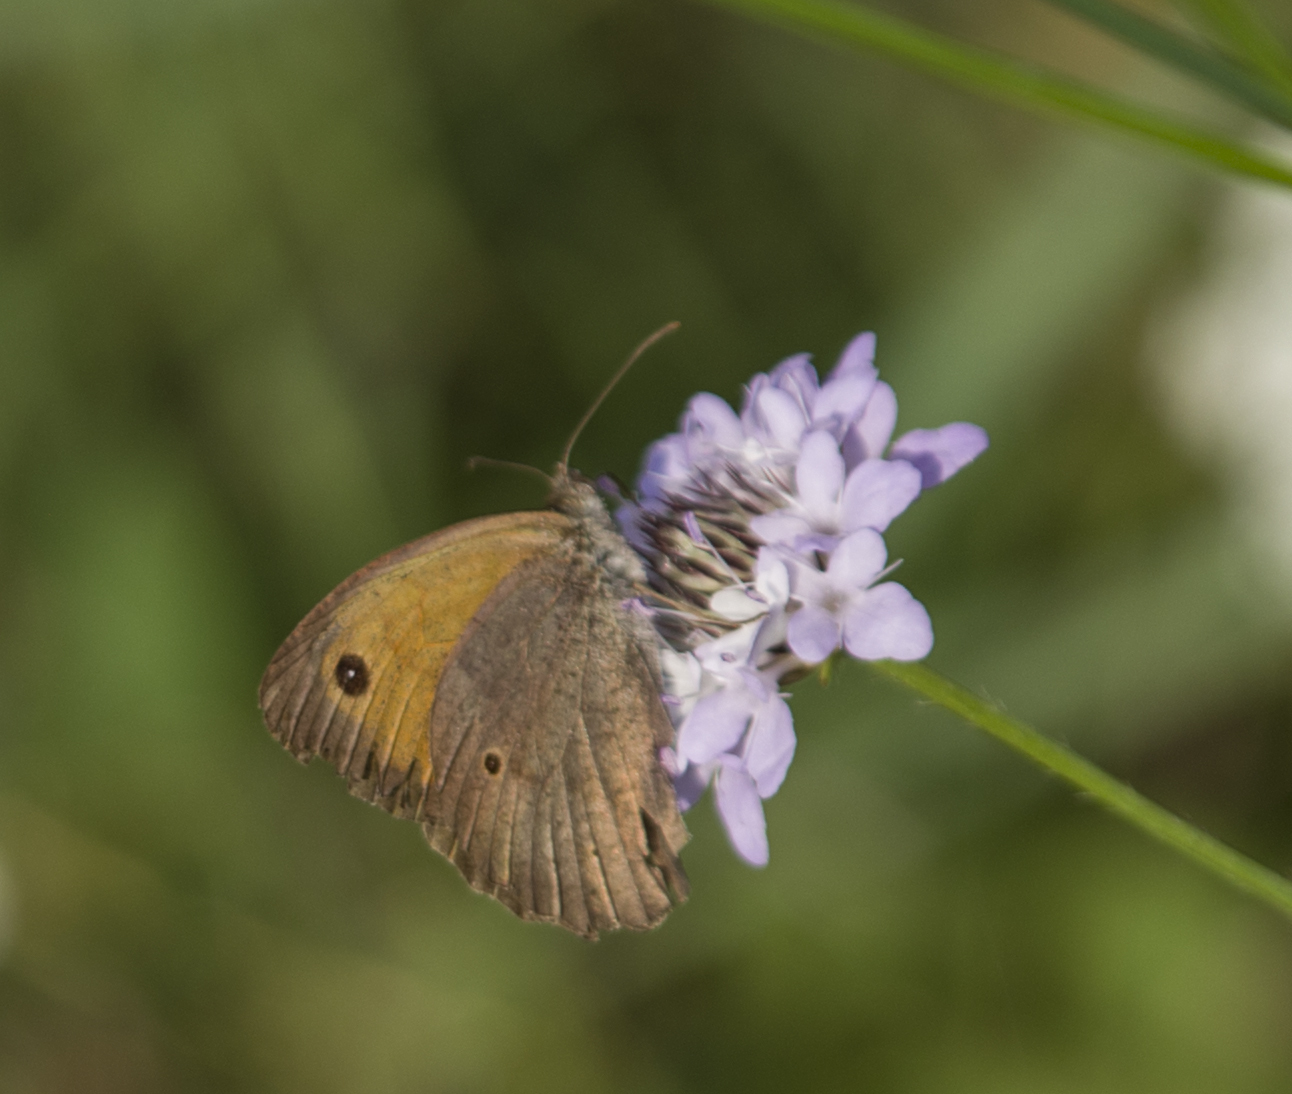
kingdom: Animalia
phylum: Arthropoda
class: Insecta
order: Lepidoptera
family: Nymphalidae
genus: Maniola
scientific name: Maniola jurtina
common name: Meadow brown
